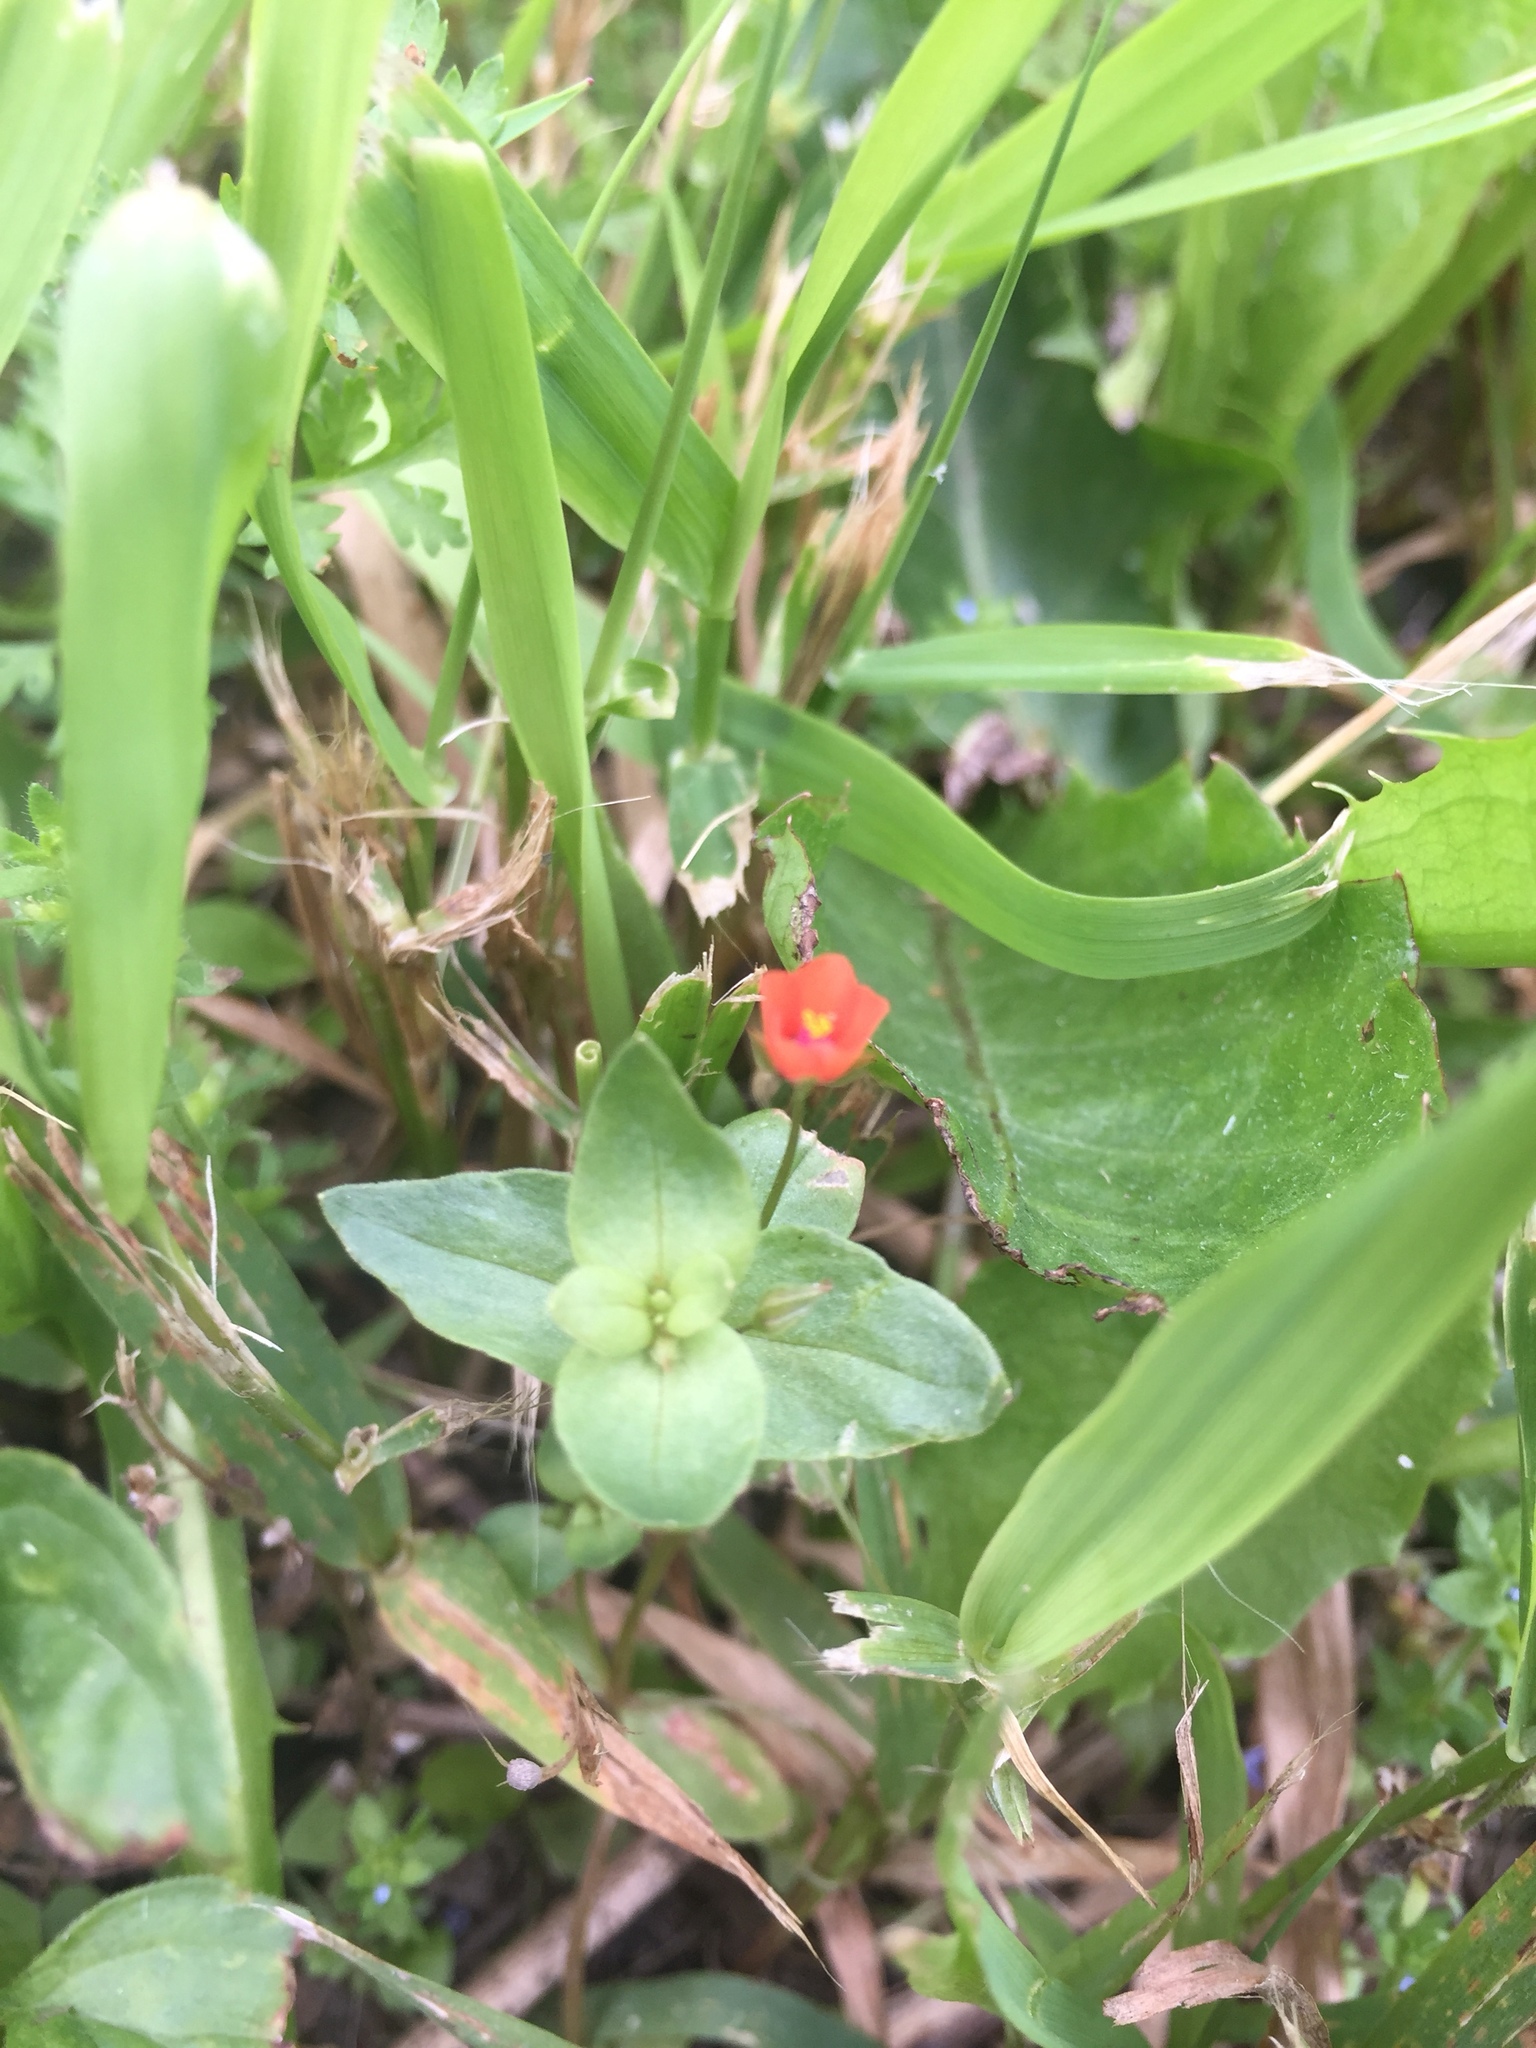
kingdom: Plantae
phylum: Tracheophyta
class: Magnoliopsida
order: Ericales
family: Primulaceae
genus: Lysimachia
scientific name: Lysimachia arvensis
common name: Scarlet pimpernel
